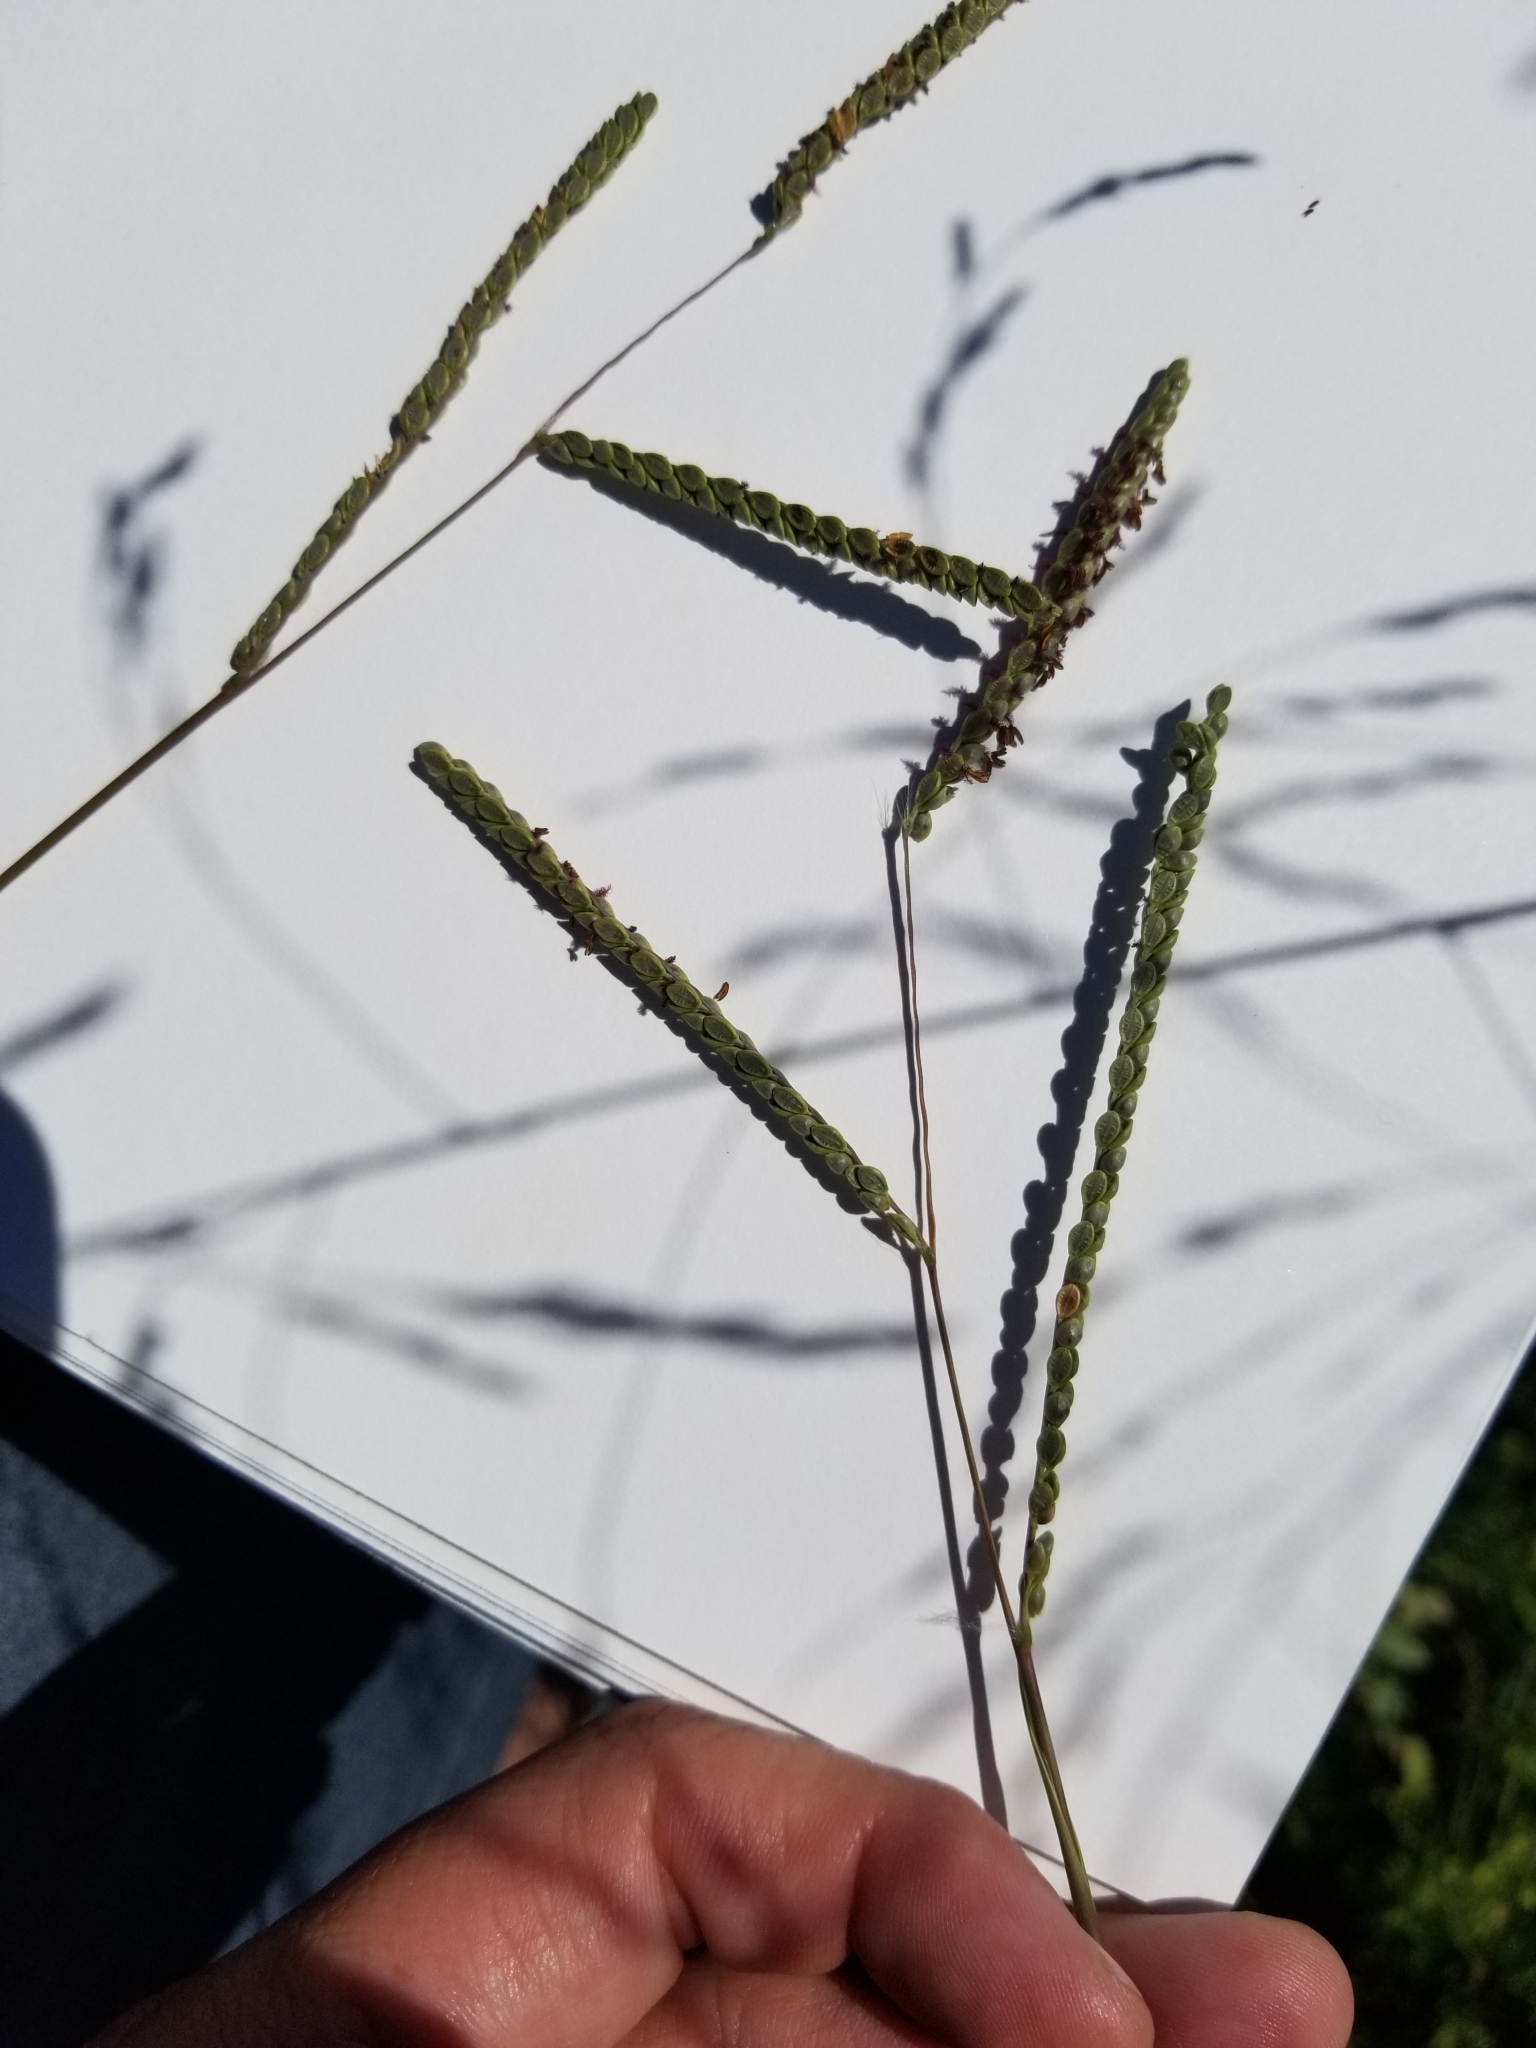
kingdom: Plantae
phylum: Tracheophyta
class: Liliopsida
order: Poales
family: Poaceae
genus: Paspalum
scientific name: Paspalum plicatulum
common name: Top paspalum
